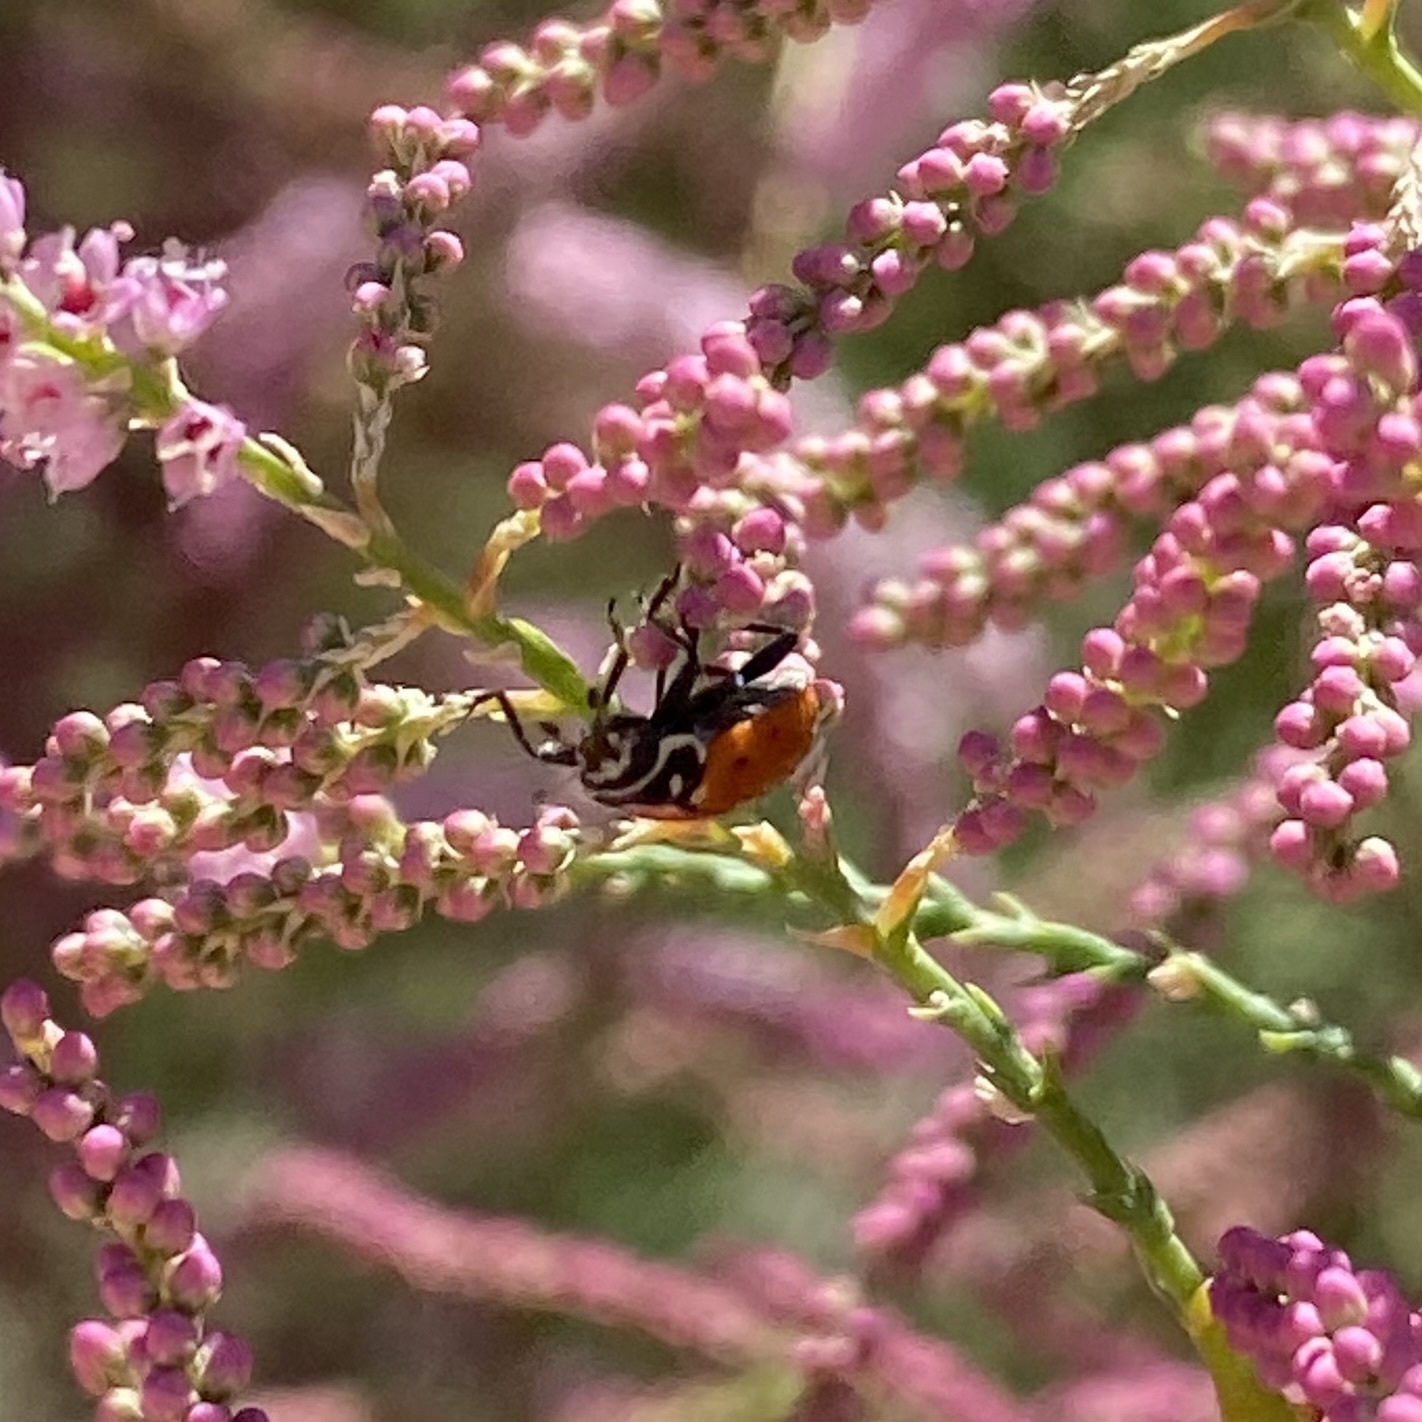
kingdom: Animalia
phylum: Arthropoda
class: Insecta
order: Coleoptera
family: Coccinellidae
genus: Hippodamia
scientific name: Hippodamia convergens
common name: Convergent lady beetle
